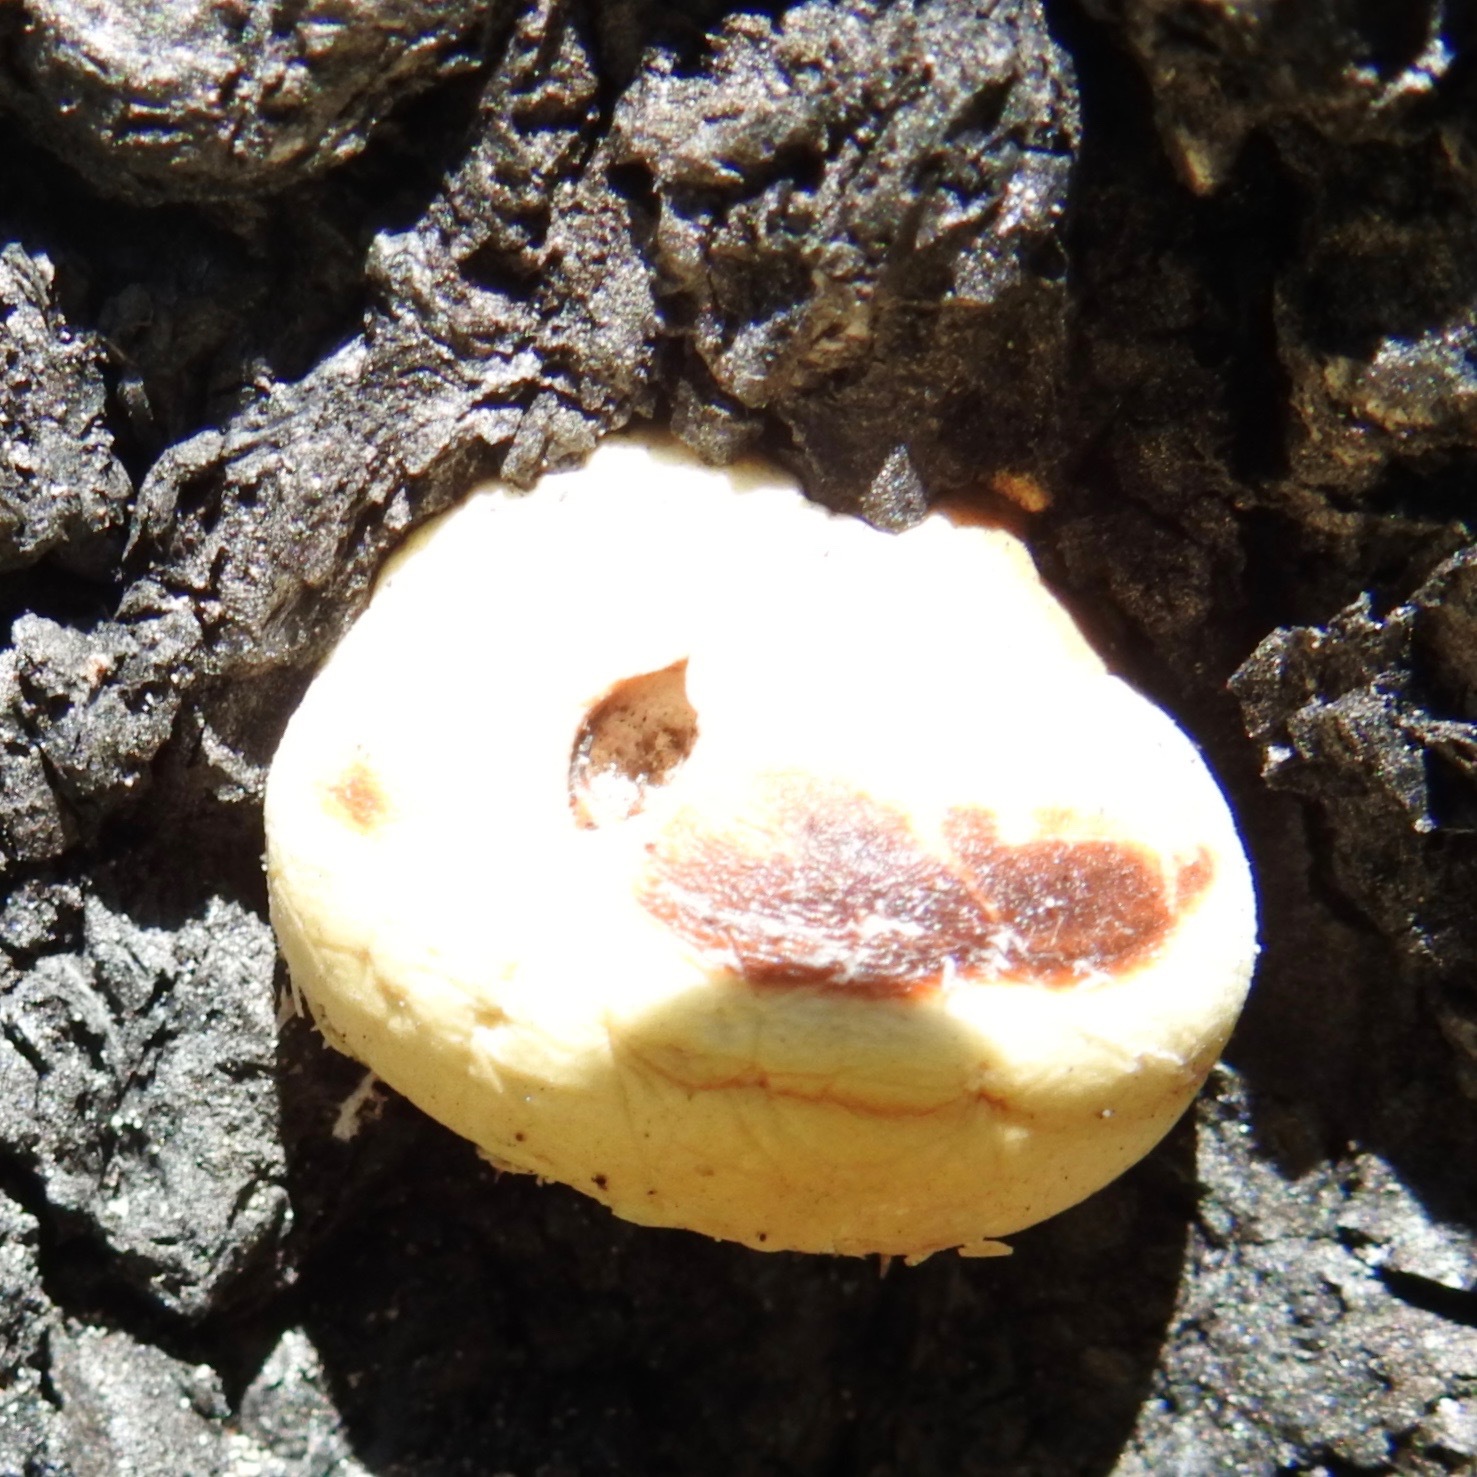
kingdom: Fungi
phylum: Basidiomycota
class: Agaricomycetes
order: Polyporales
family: Polyporaceae
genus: Cryptoporus
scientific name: Cryptoporus volvatus
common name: Veiled polypore
